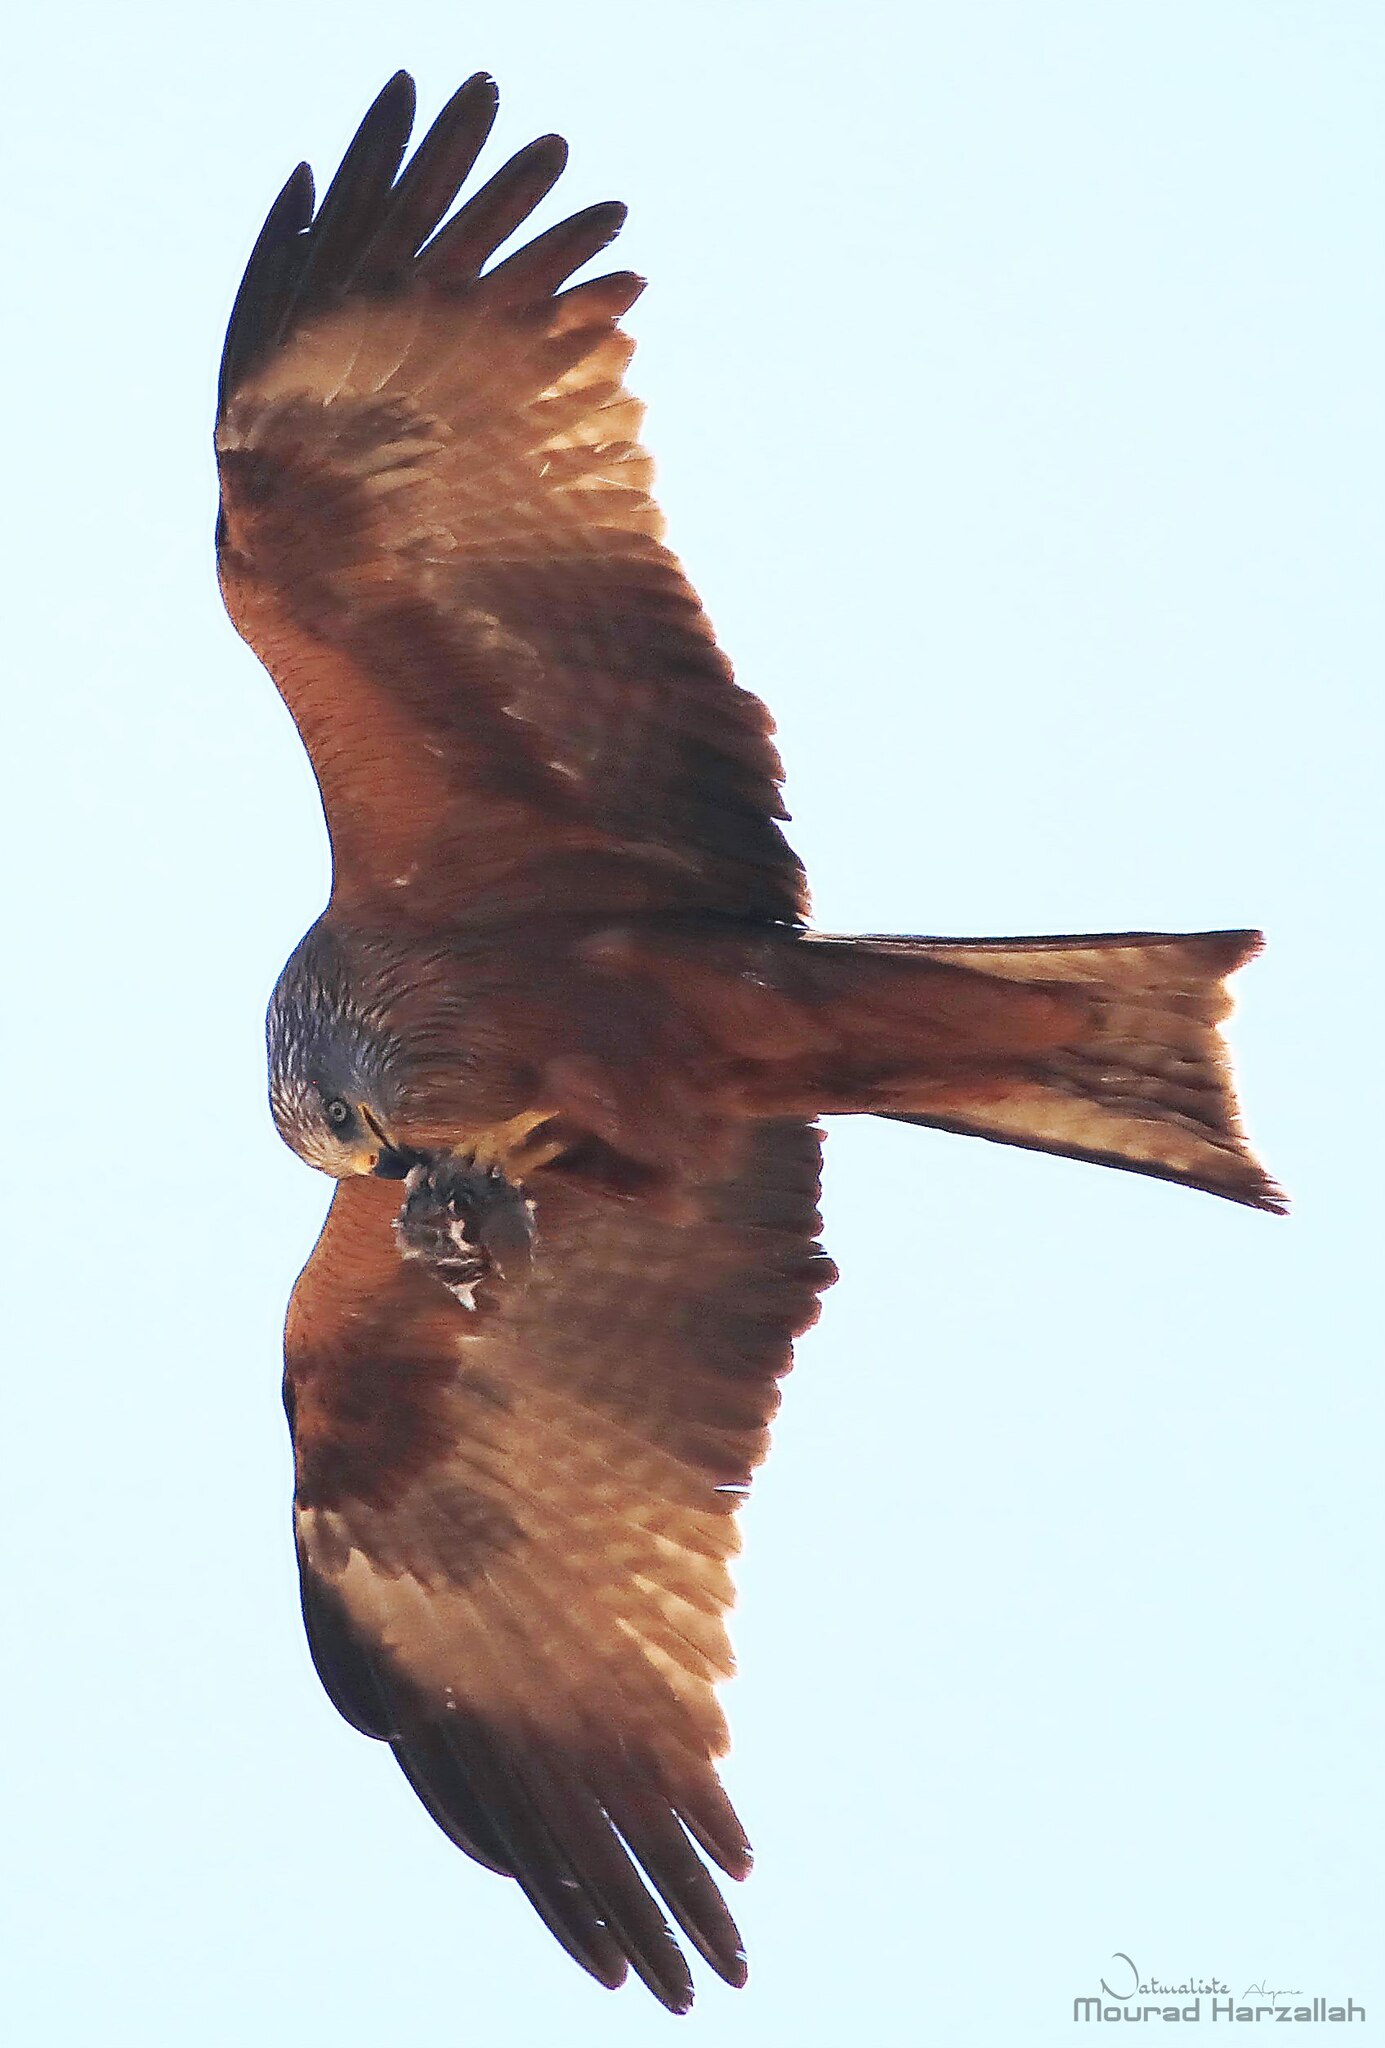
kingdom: Animalia
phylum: Chordata
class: Aves
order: Accipitriformes
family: Accipitridae
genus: Milvus
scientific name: Milvus migrans
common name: Black kite
